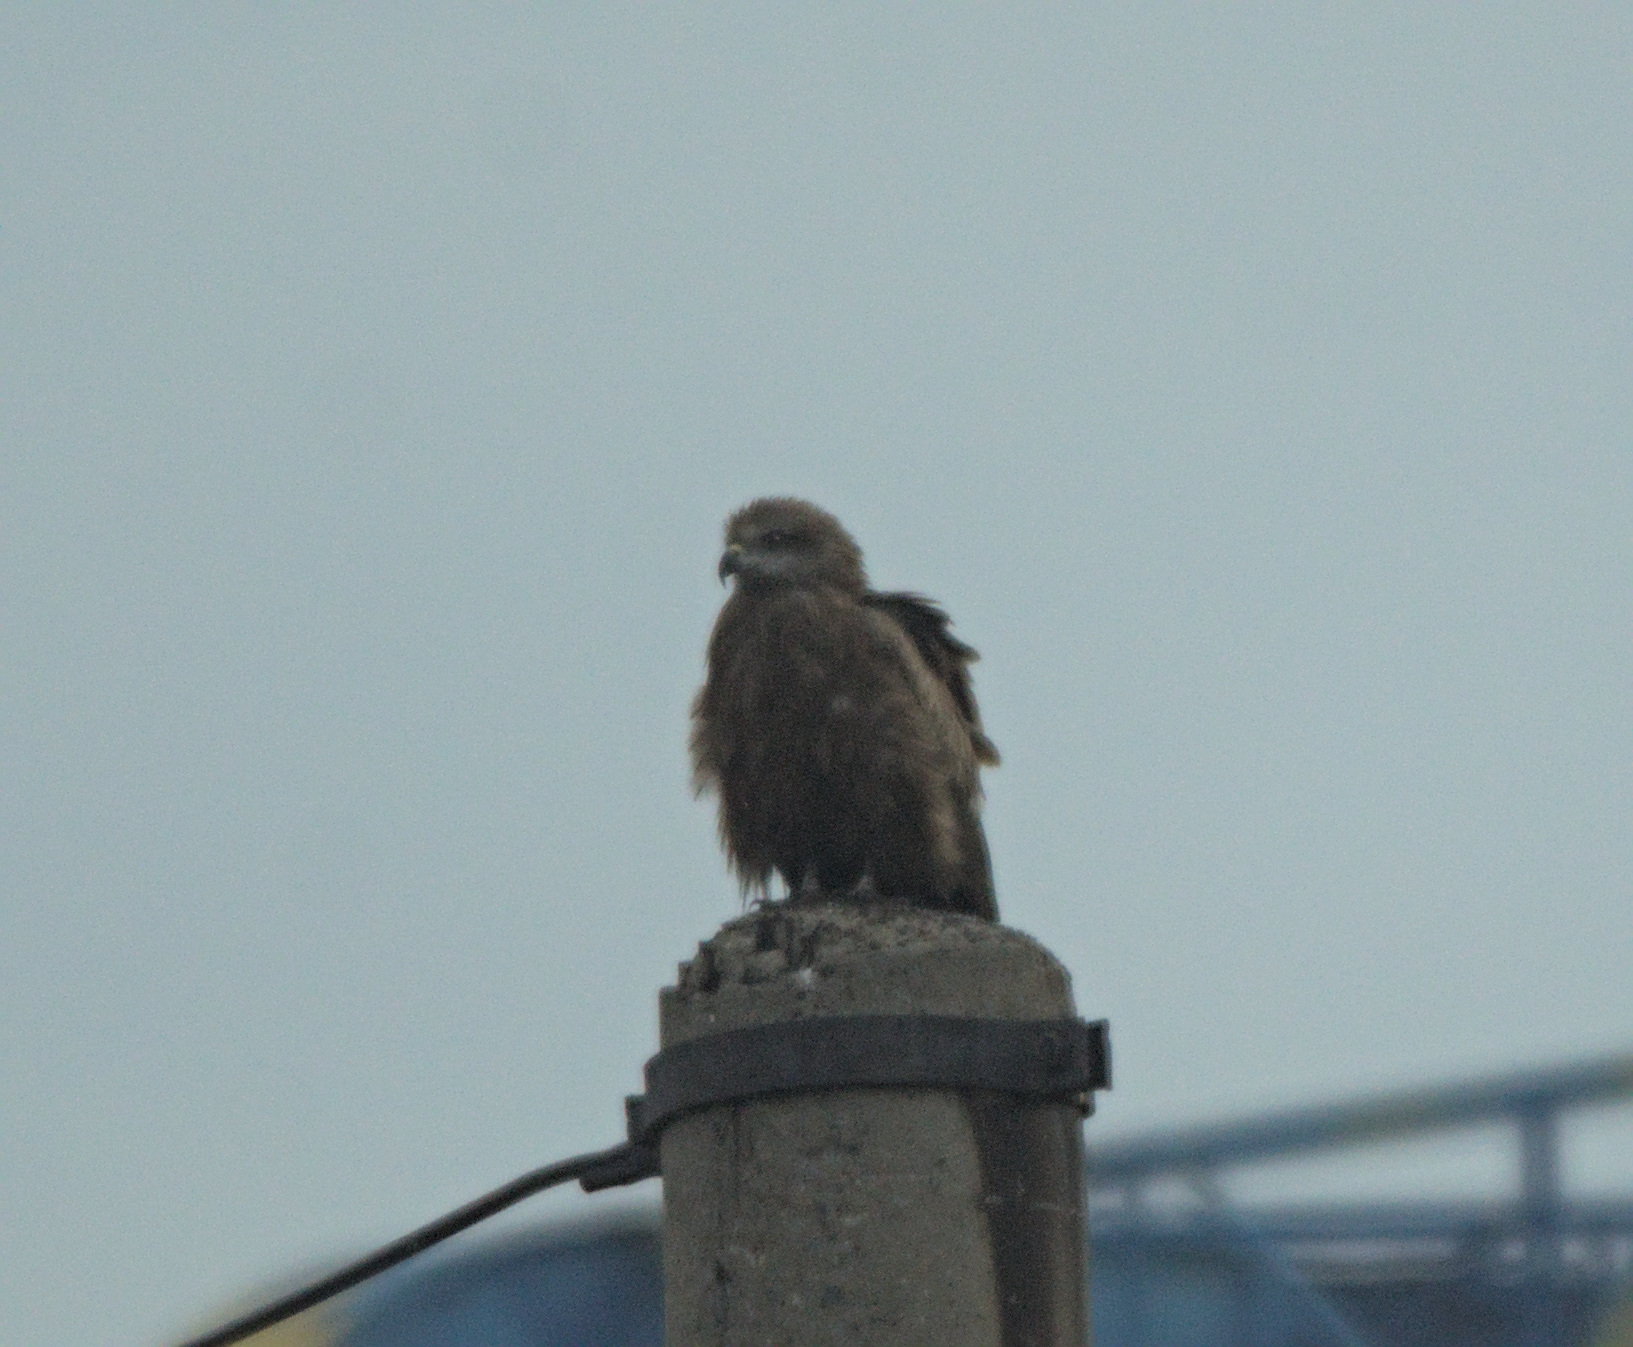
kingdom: Animalia
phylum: Chordata
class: Aves
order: Accipitriformes
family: Accipitridae
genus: Milvus
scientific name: Milvus migrans
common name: Black kite
